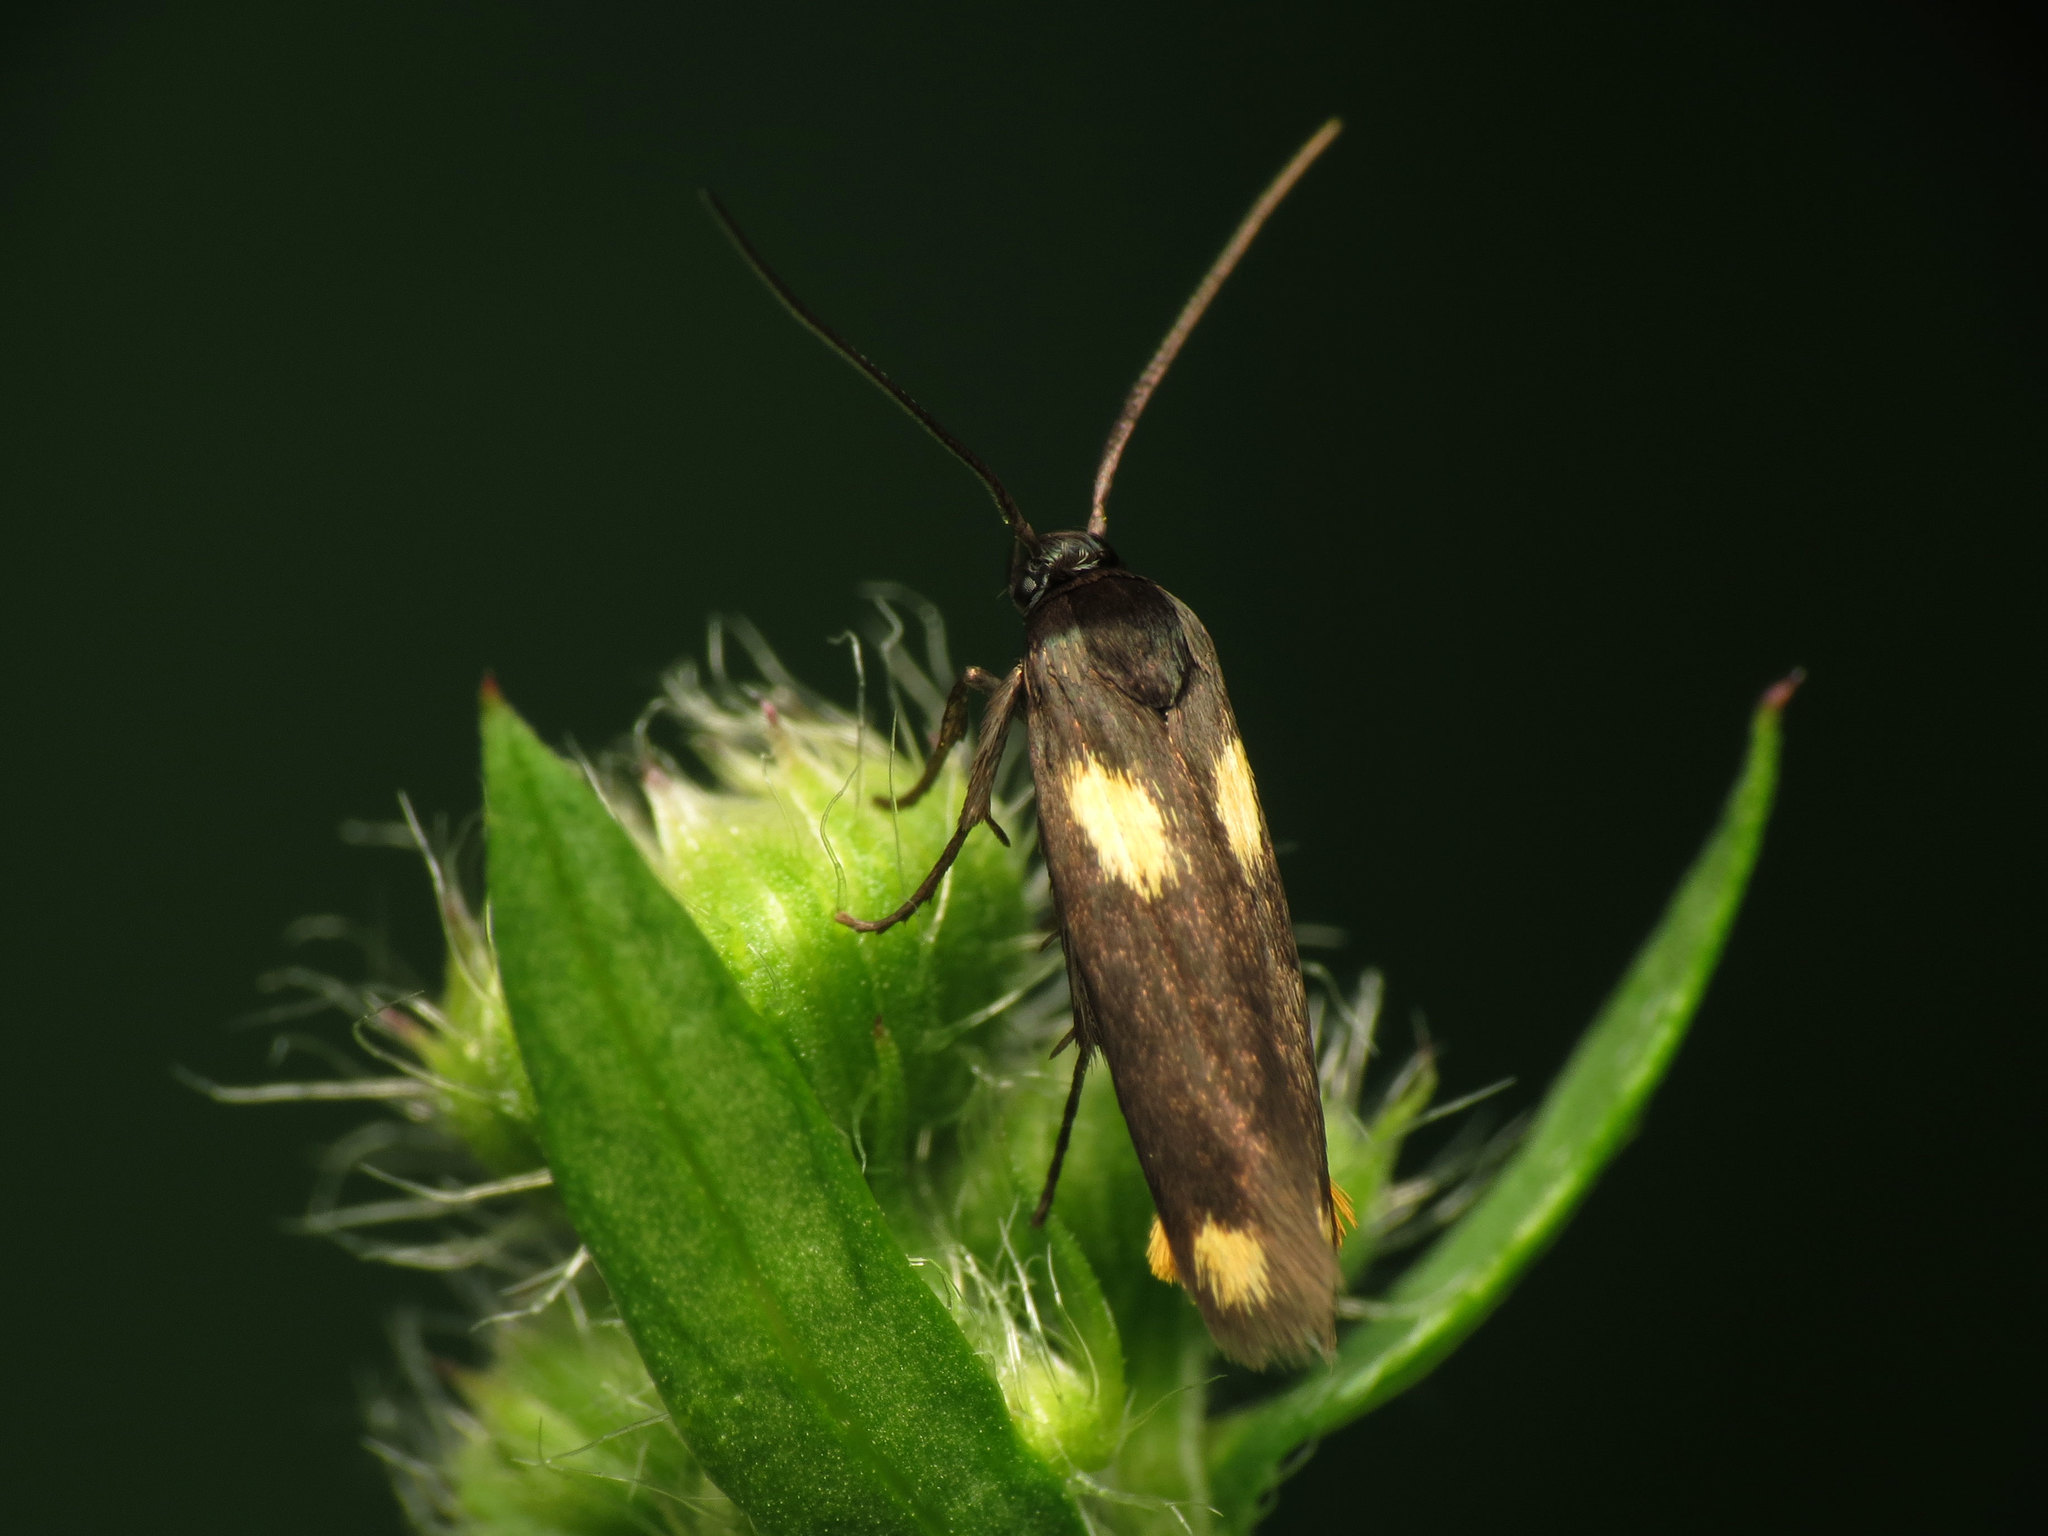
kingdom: Animalia
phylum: Arthropoda
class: Insecta
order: Lepidoptera
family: Scythrididae
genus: Scythris
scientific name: Scythris sinensis
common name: Kentish owlet
